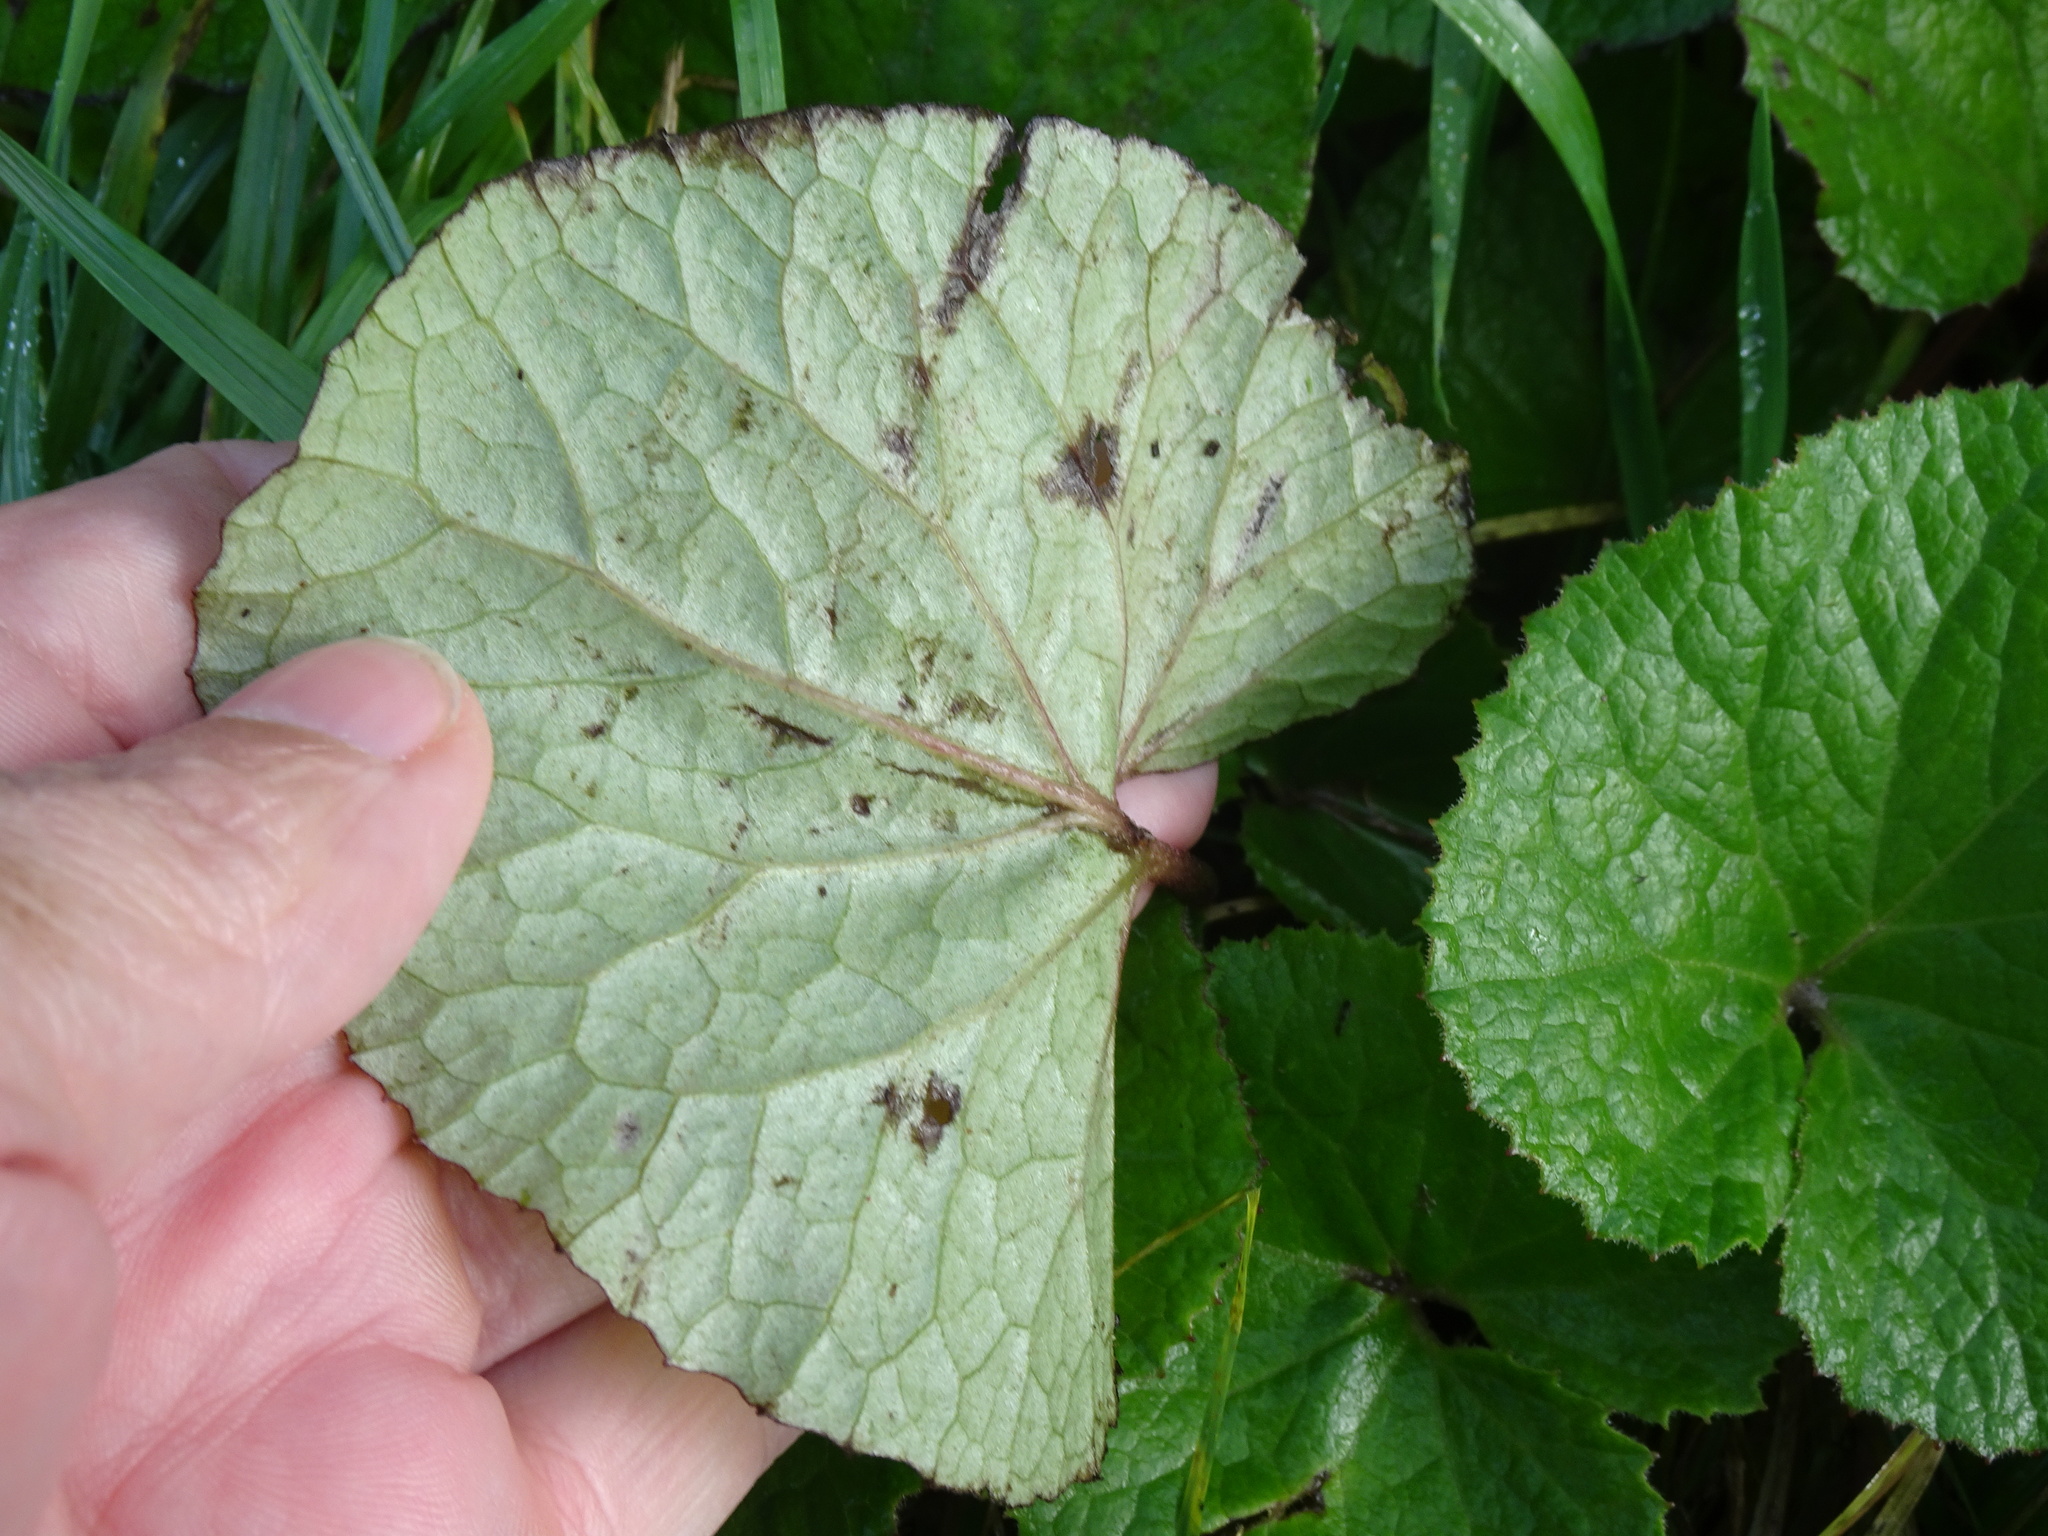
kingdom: Plantae
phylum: Tracheophyta
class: Magnoliopsida
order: Asterales
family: Asteraceae
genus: Petasites
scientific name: Petasites pyrenaicus
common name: Winter heliotrope
